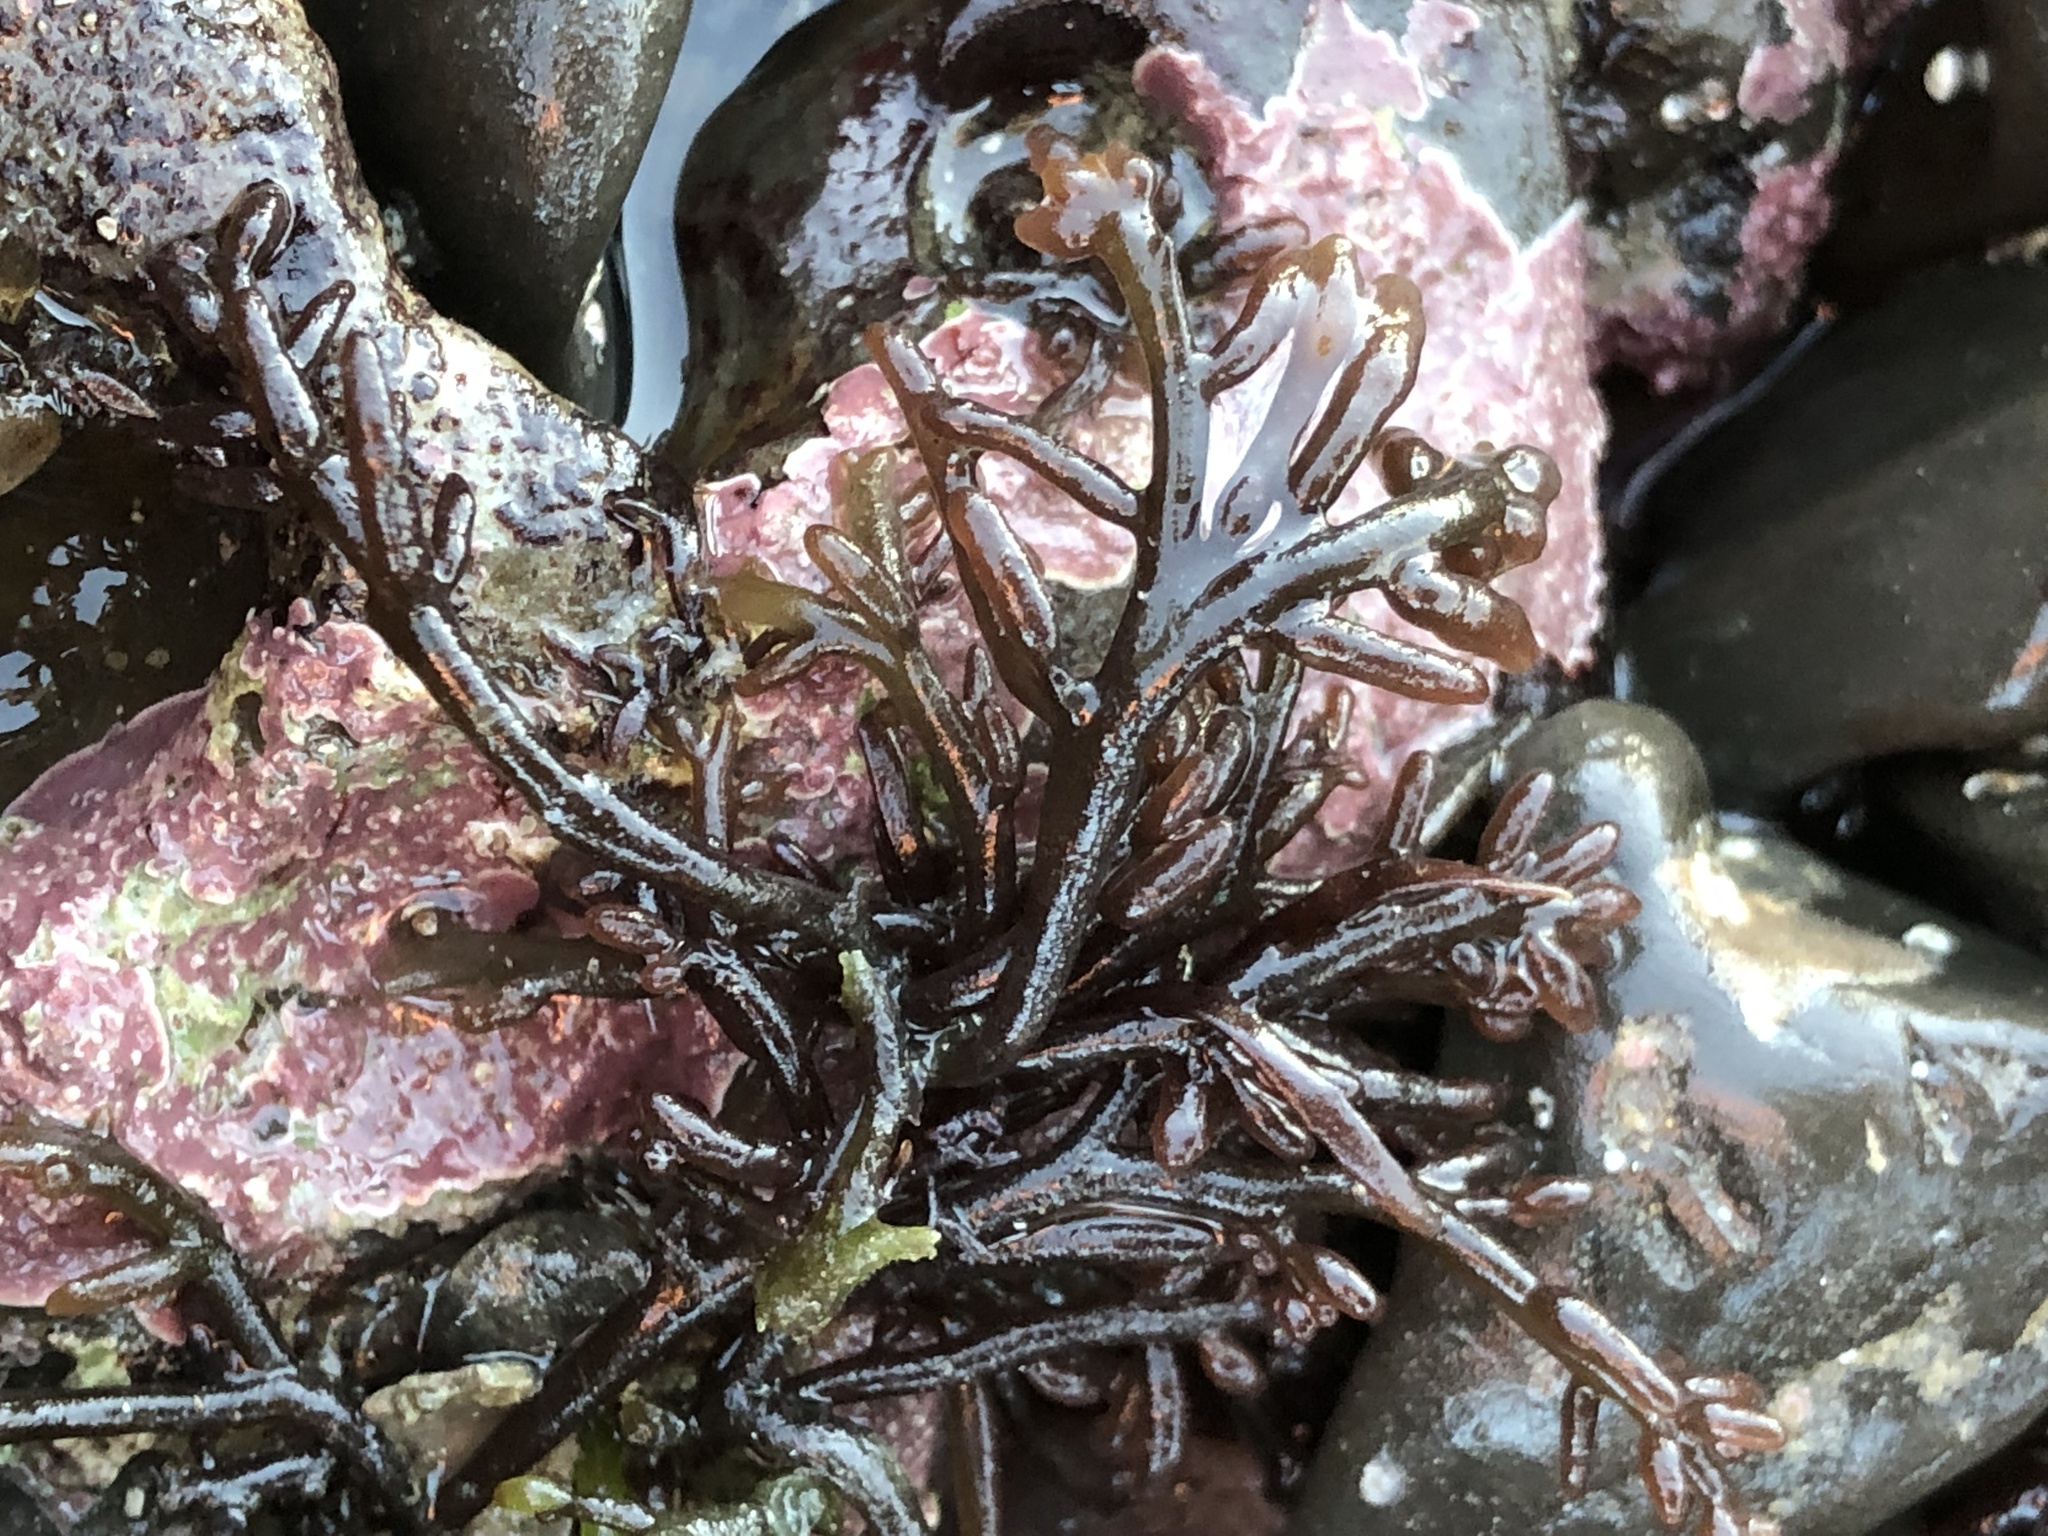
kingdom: Plantae
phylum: Rhodophyta
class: Florideophyceae
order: Rhodymeniales
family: Champiaceae
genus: Neogastroclonium
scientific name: Neogastroclonium subarticulatum
